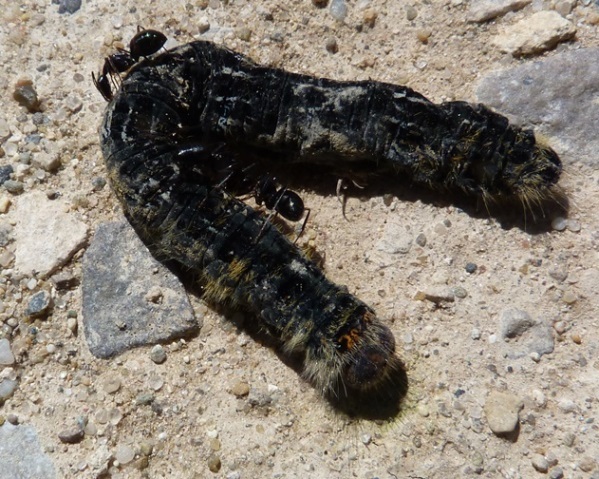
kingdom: Animalia
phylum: Arthropoda
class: Insecta
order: Lepidoptera
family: Lasiocampidae
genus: Lasiocampa
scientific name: Lasiocampa trifolii
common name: Grass eggar
